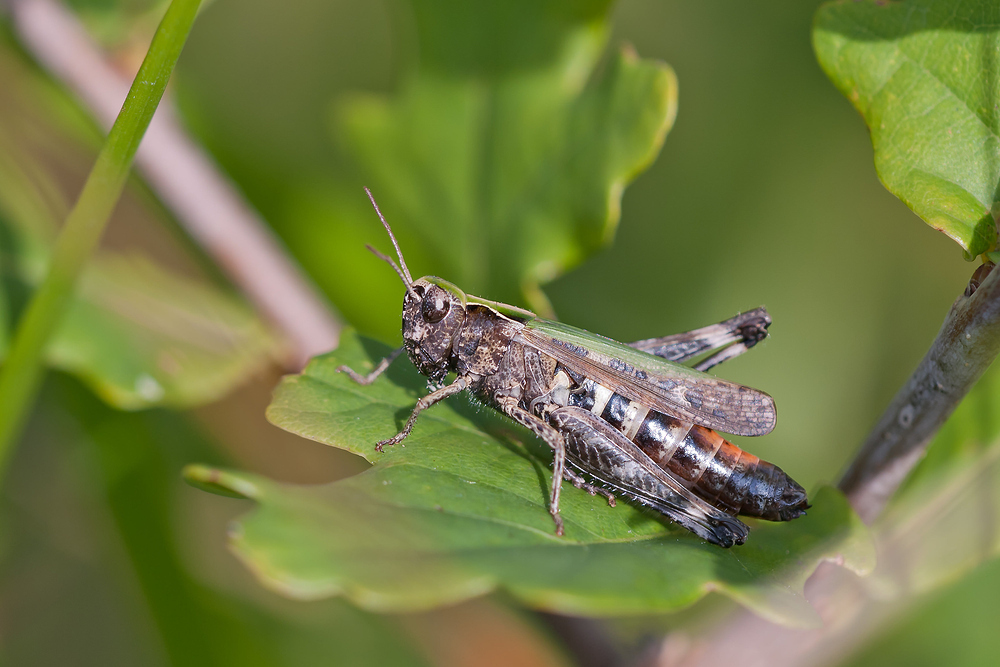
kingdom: Animalia
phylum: Arthropoda
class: Insecta
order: Orthoptera
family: Acrididae
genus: Omocestus
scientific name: Omocestus rufipes
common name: Woodland grasshopper
